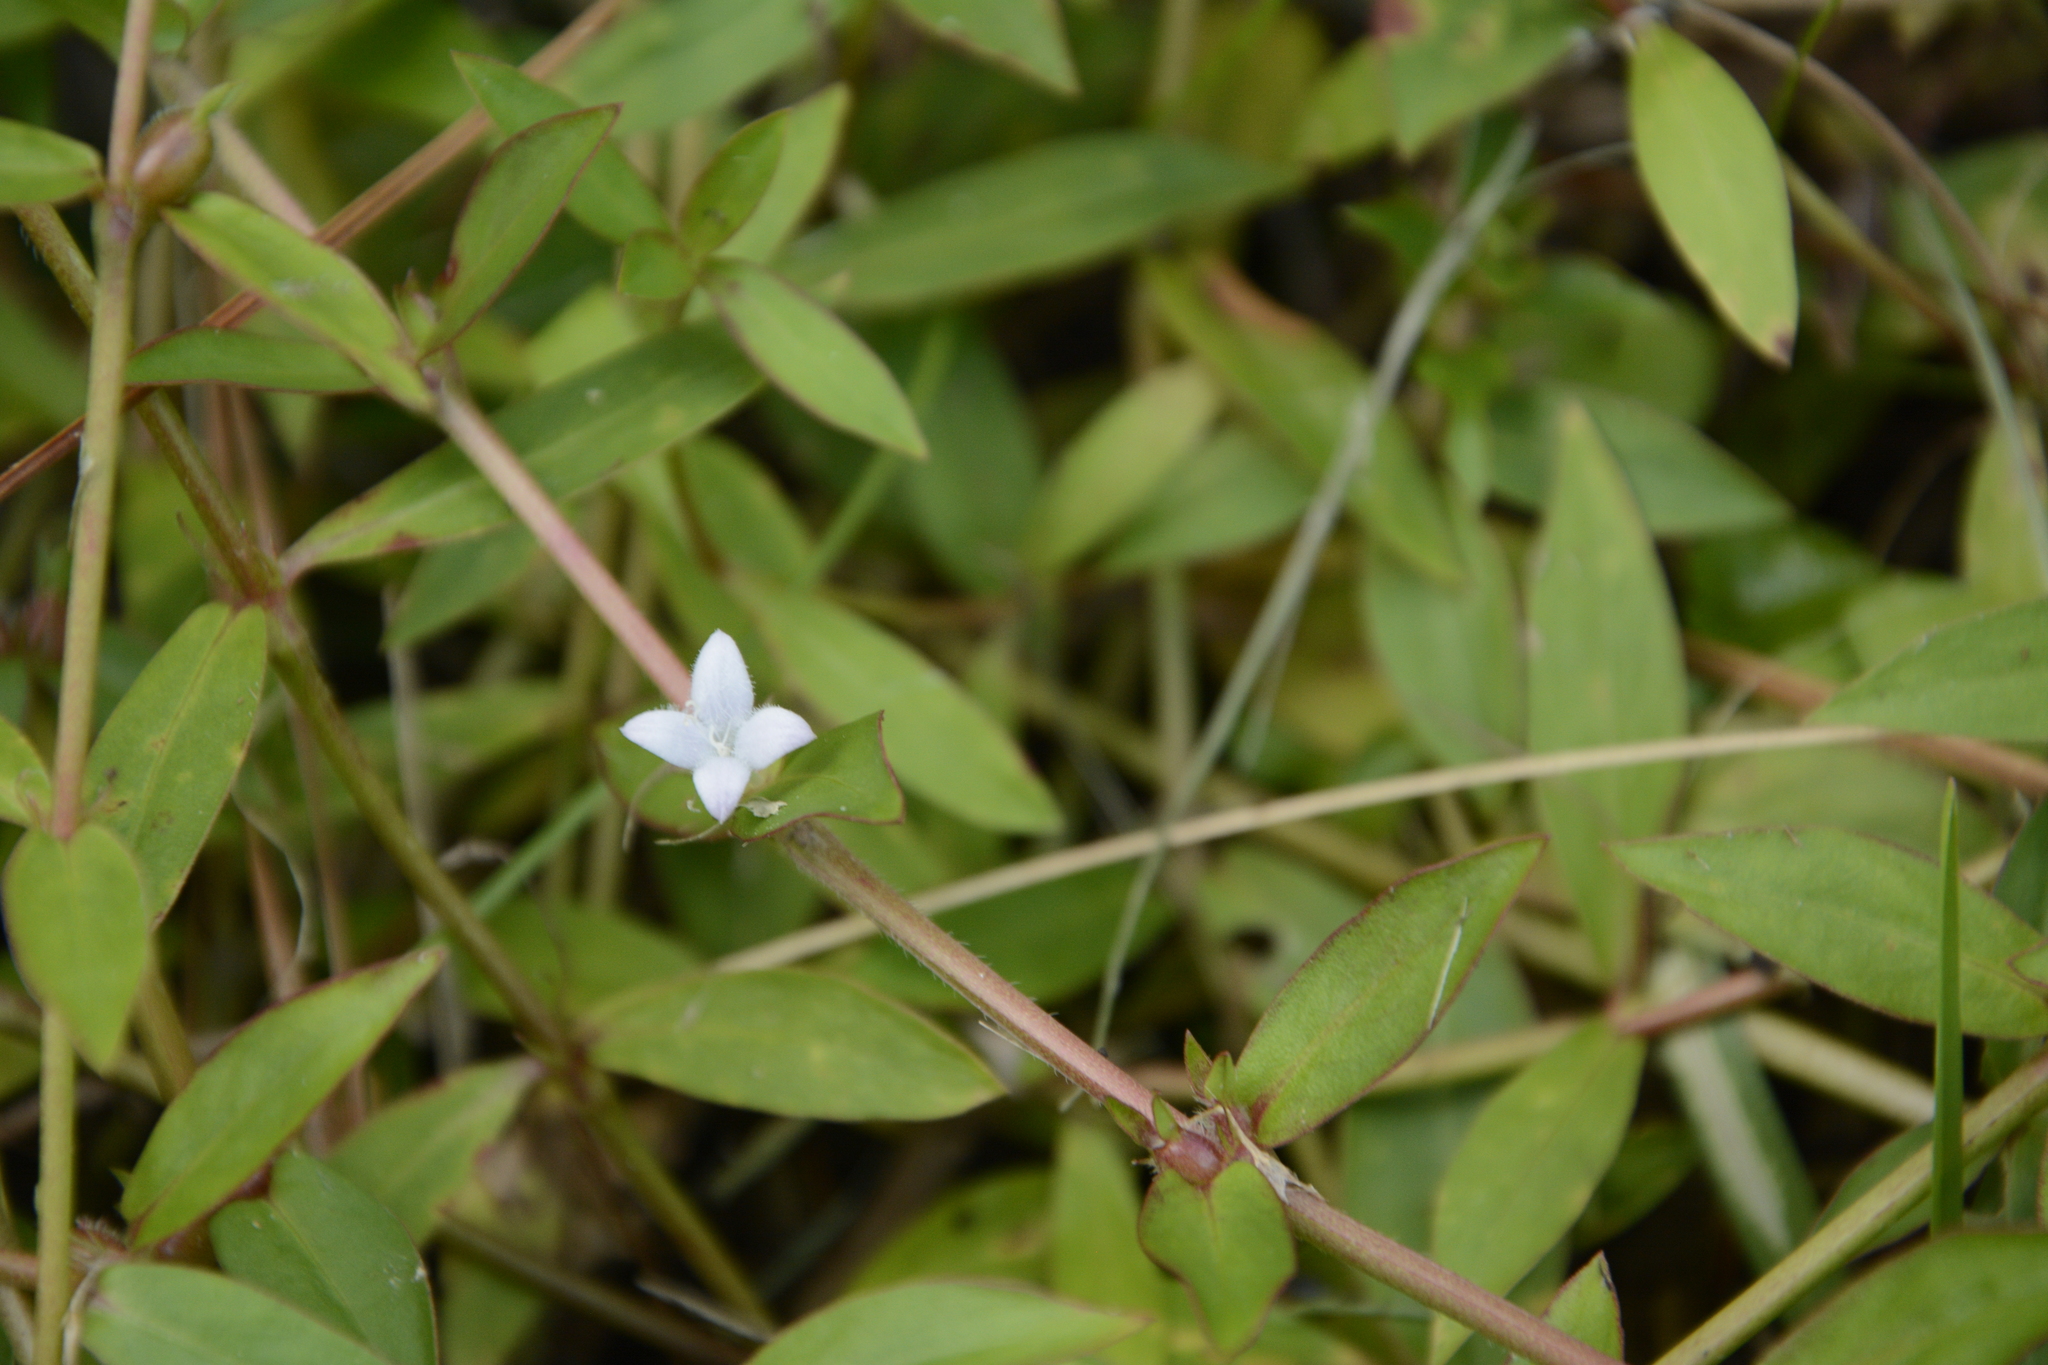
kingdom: Plantae
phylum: Tracheophyta
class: Magnoliopsida
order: Gentianales
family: Rubiaceae
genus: Diodia
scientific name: Diodia virginiana
